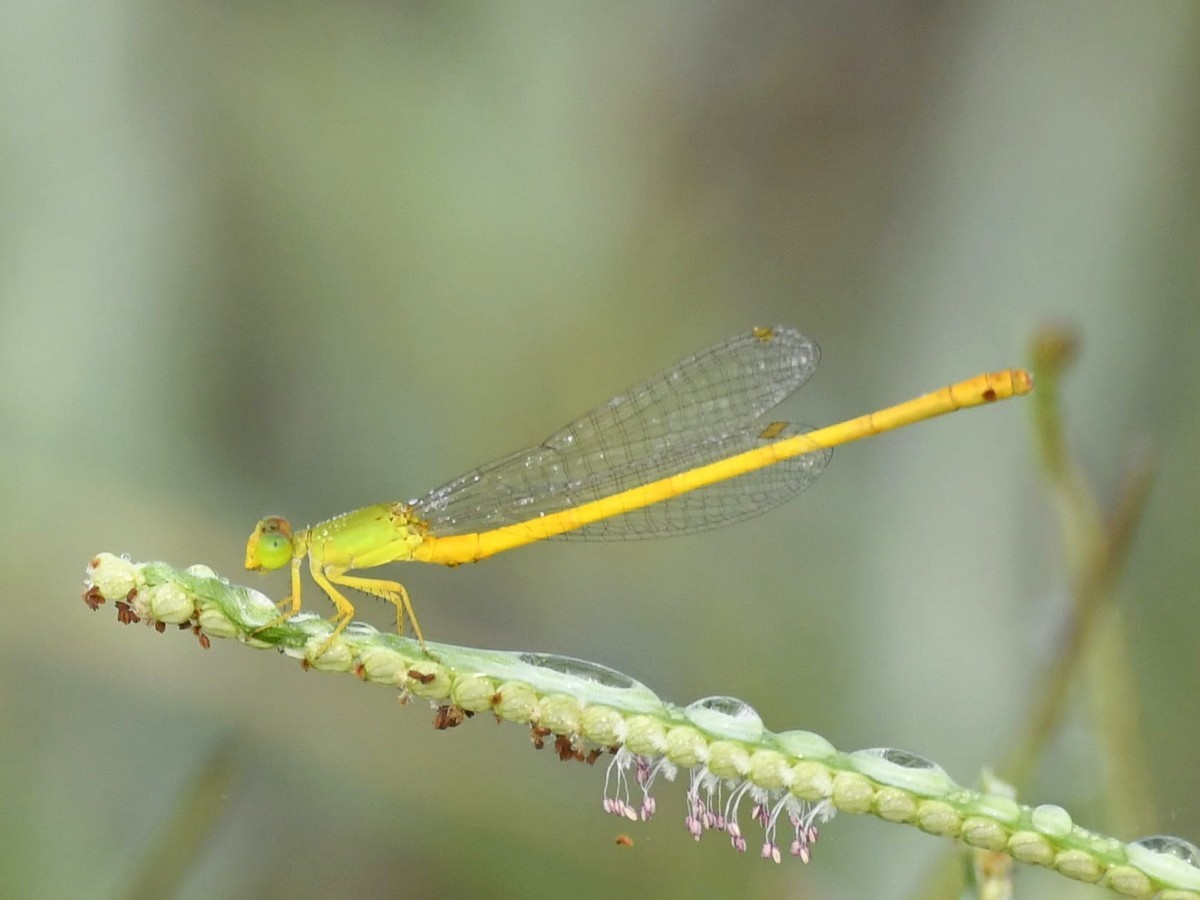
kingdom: Animalia
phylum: Arthropoda
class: Insecta
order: Odonata
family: Coenagrionidae
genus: Ceriagrion
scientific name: Ceriagrion coromandelianum
